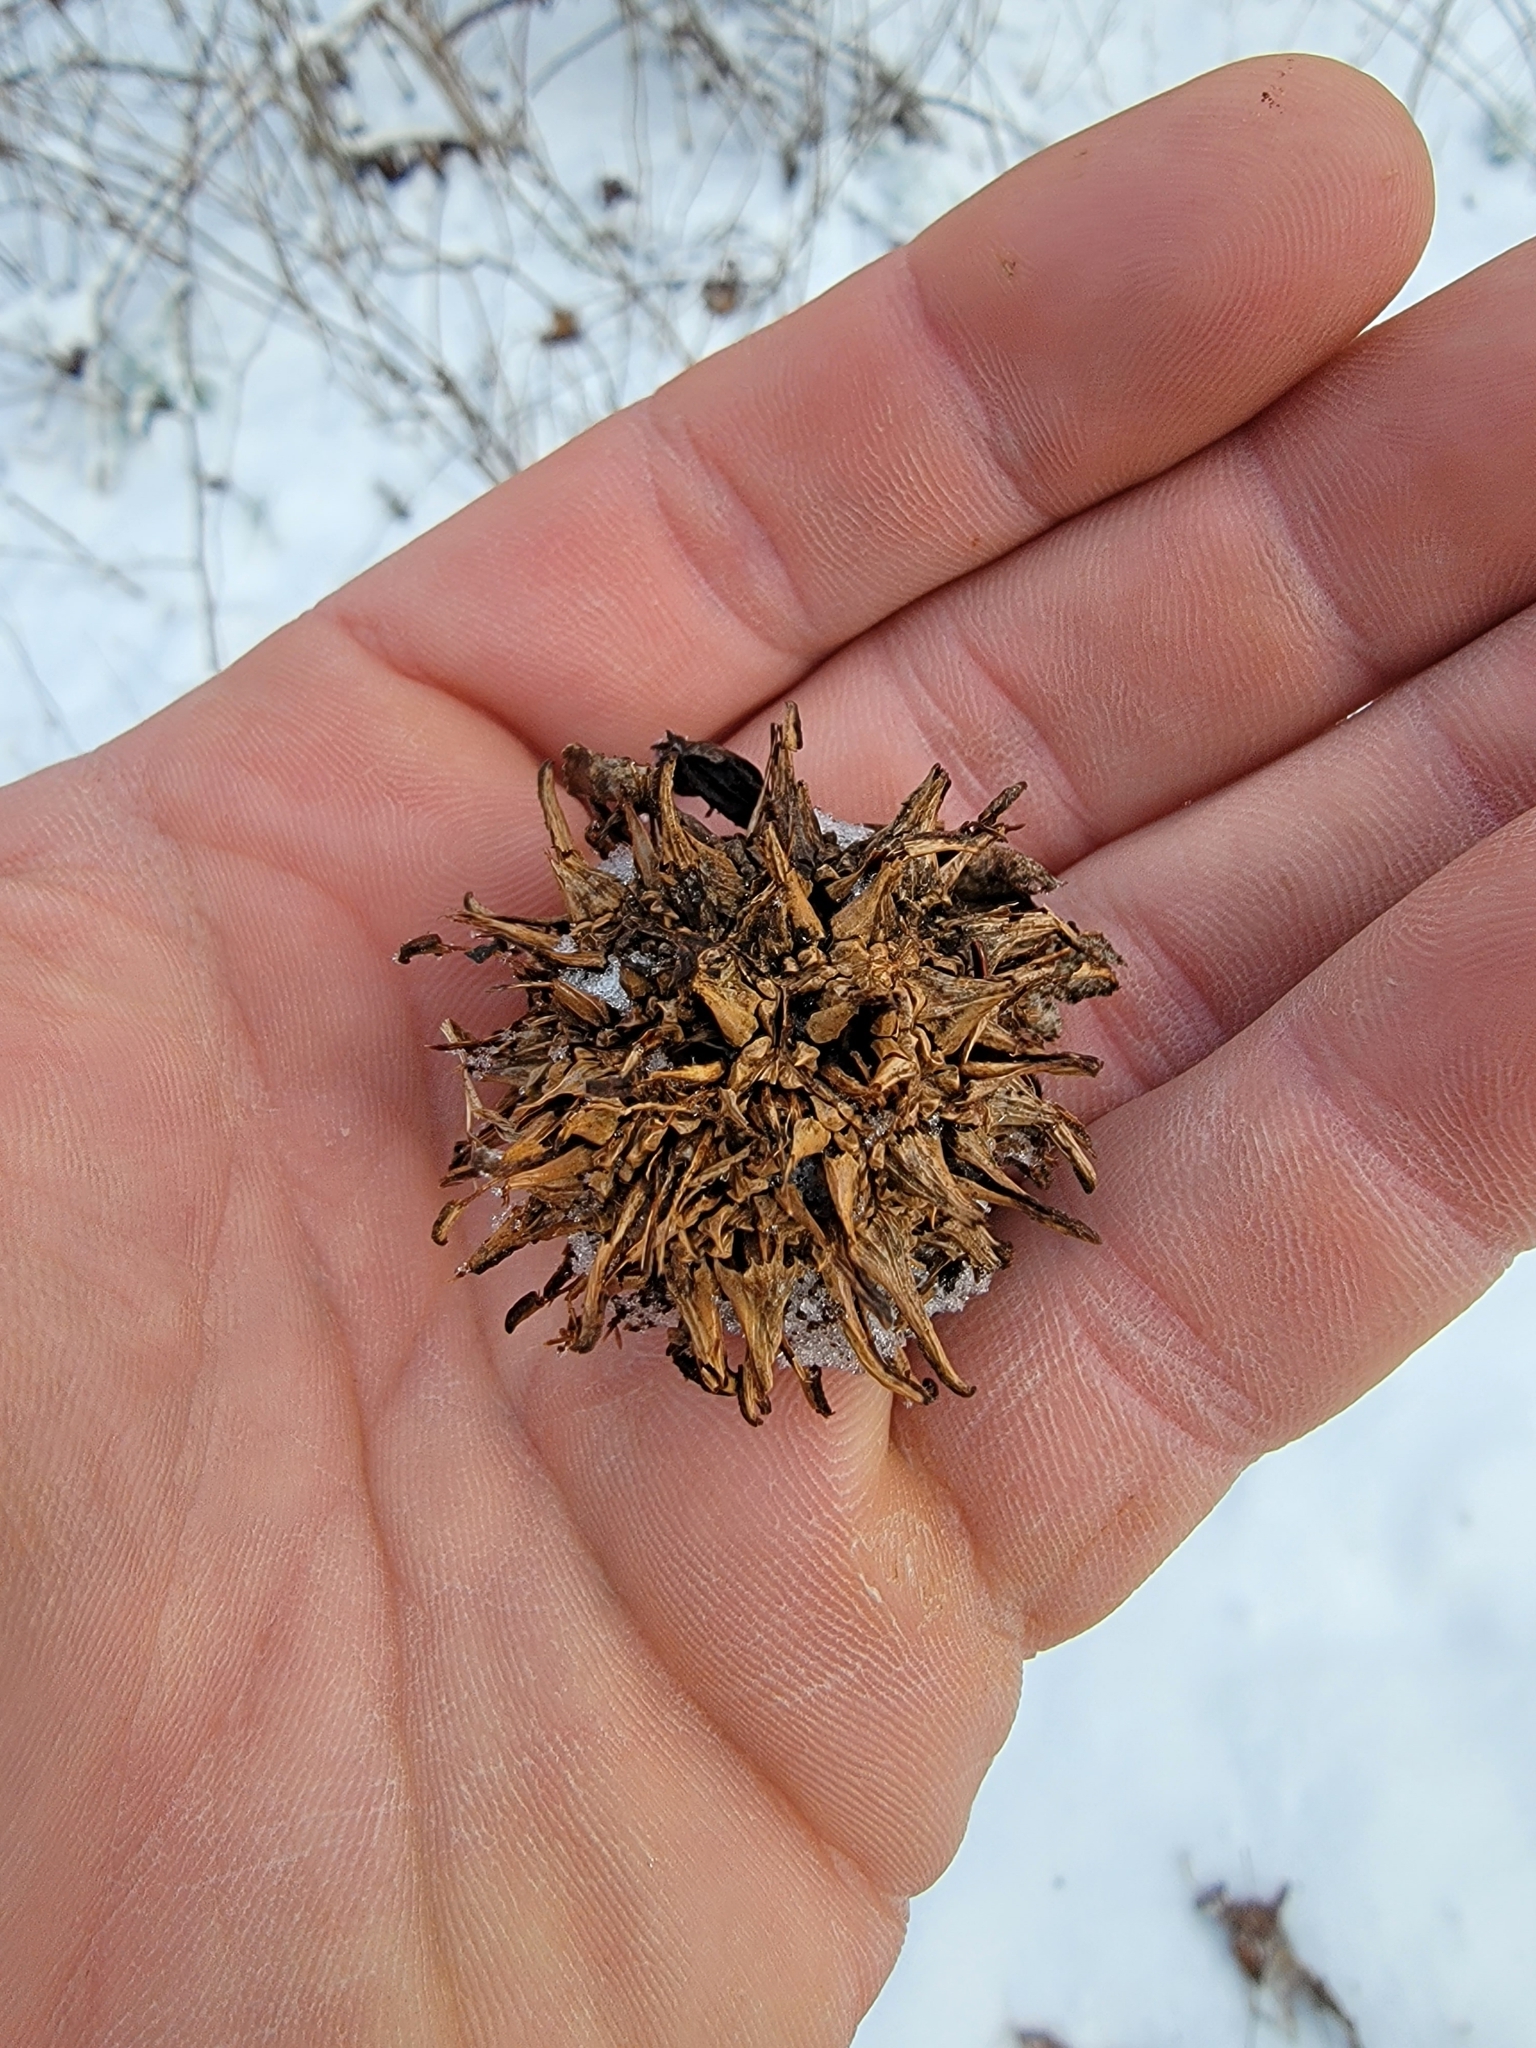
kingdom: Plantae
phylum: Tracheophyta
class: Magnoliopsida
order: Saxifragales
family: Altingiaceae
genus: Liquidambar
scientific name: Liquidambar styraciflua
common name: Sweet gum
